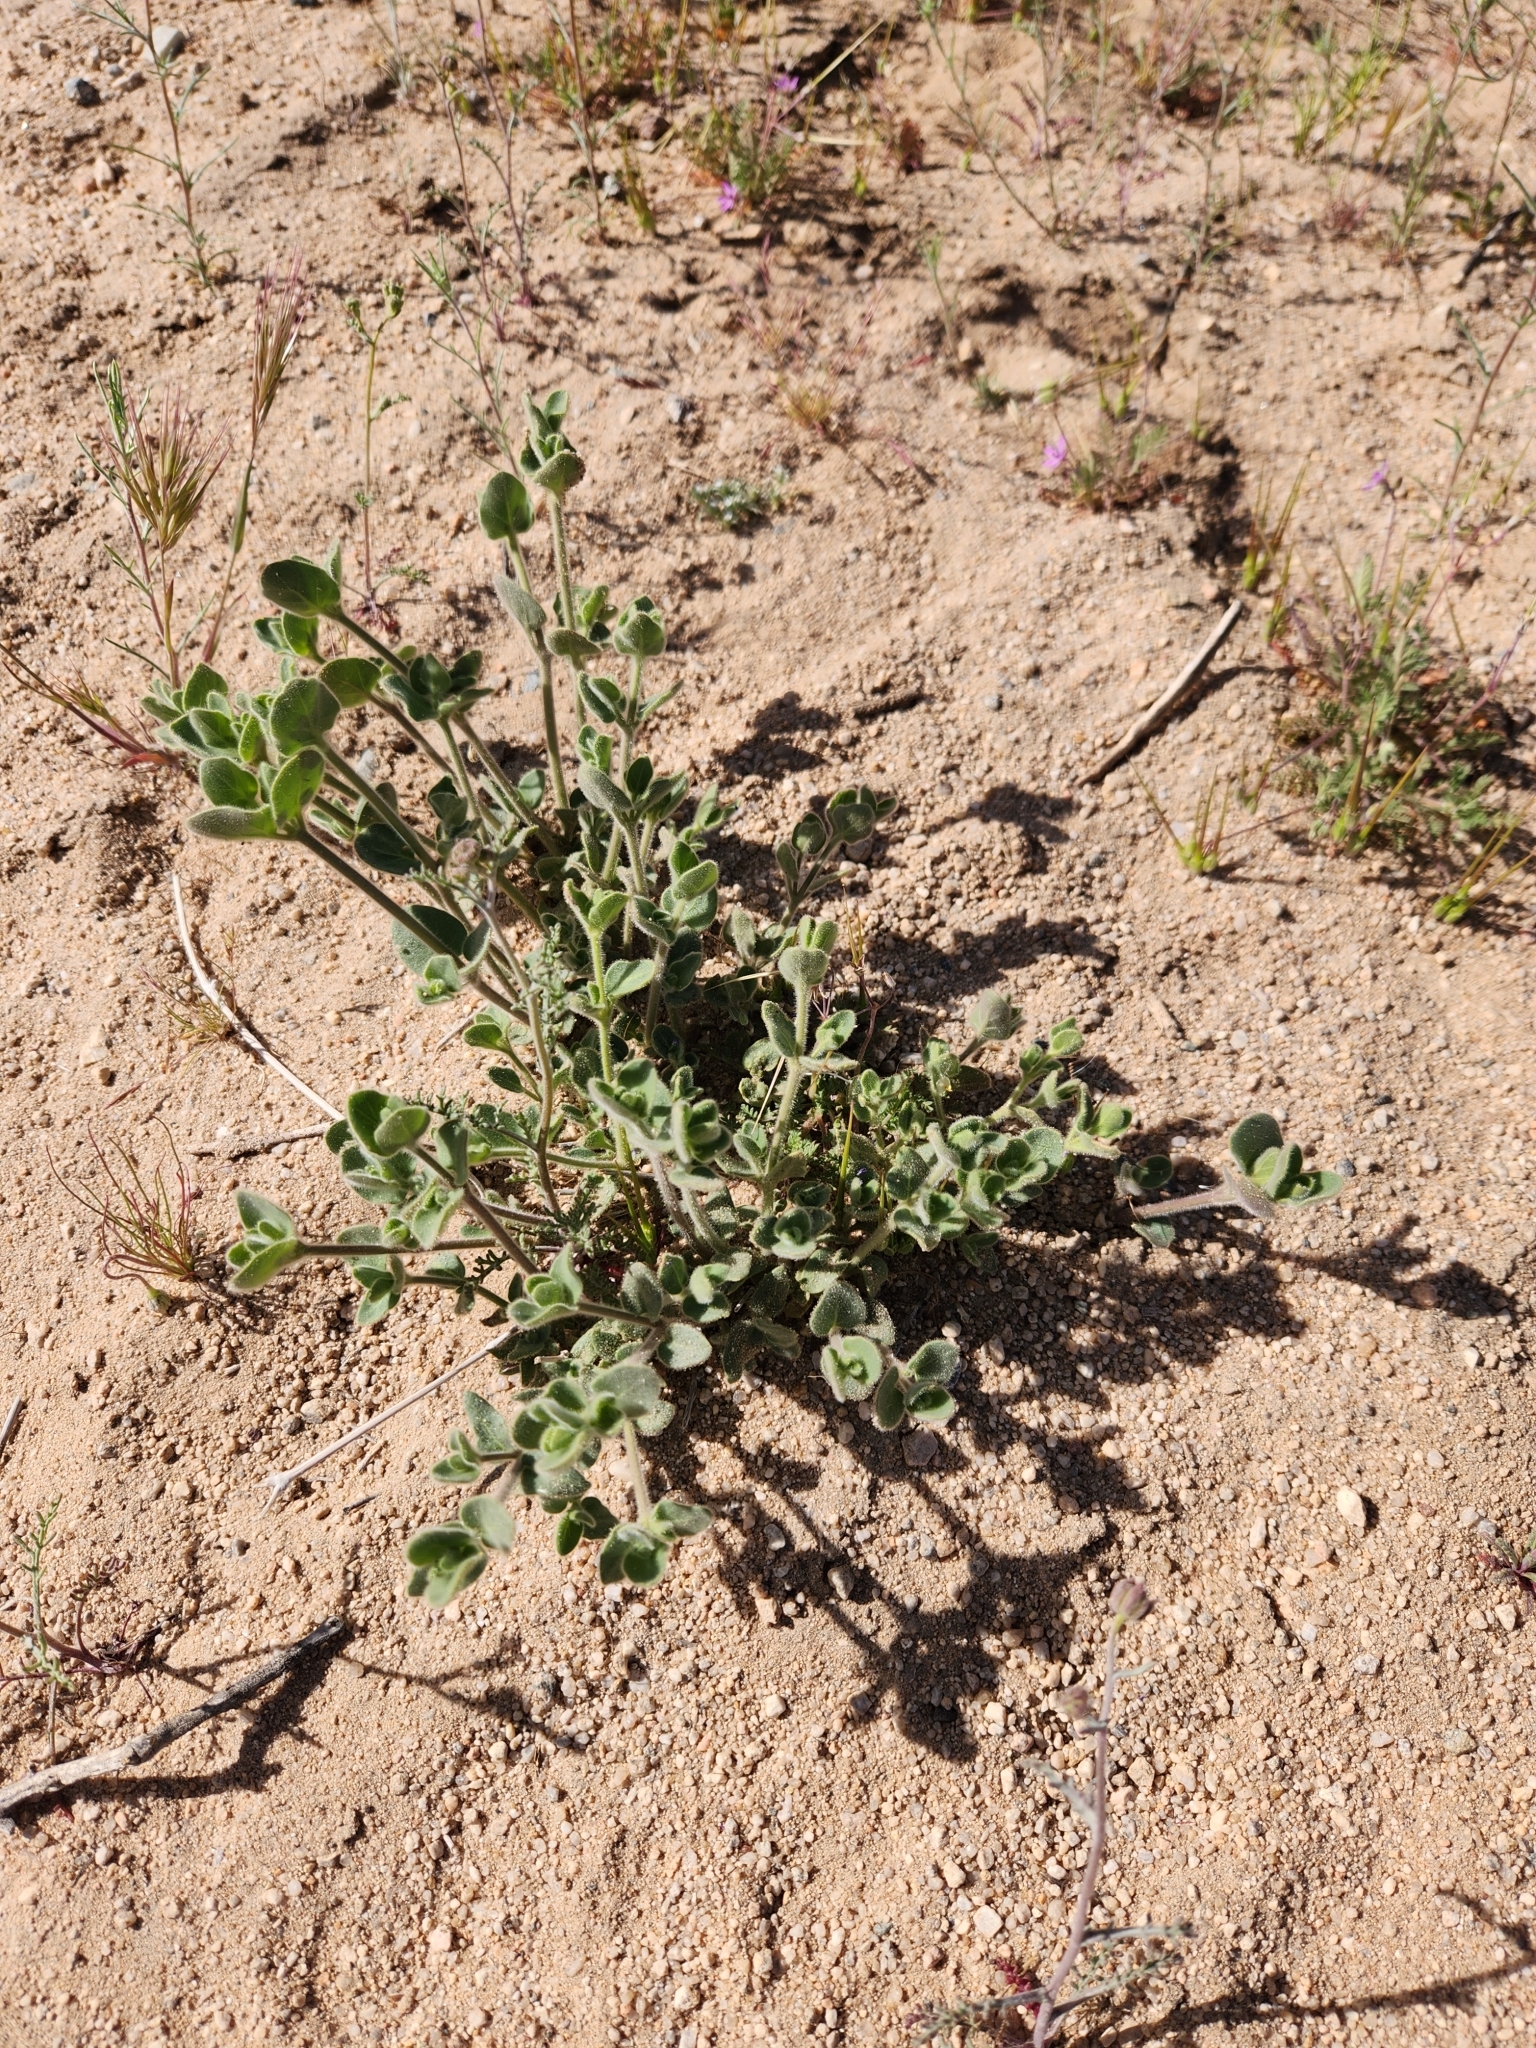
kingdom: Plantae
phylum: Tracheophyta
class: Magnoliopsida
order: Caryophyllales
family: Nyctaginaceae
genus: Mirabilis
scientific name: Mirabilis laevis
